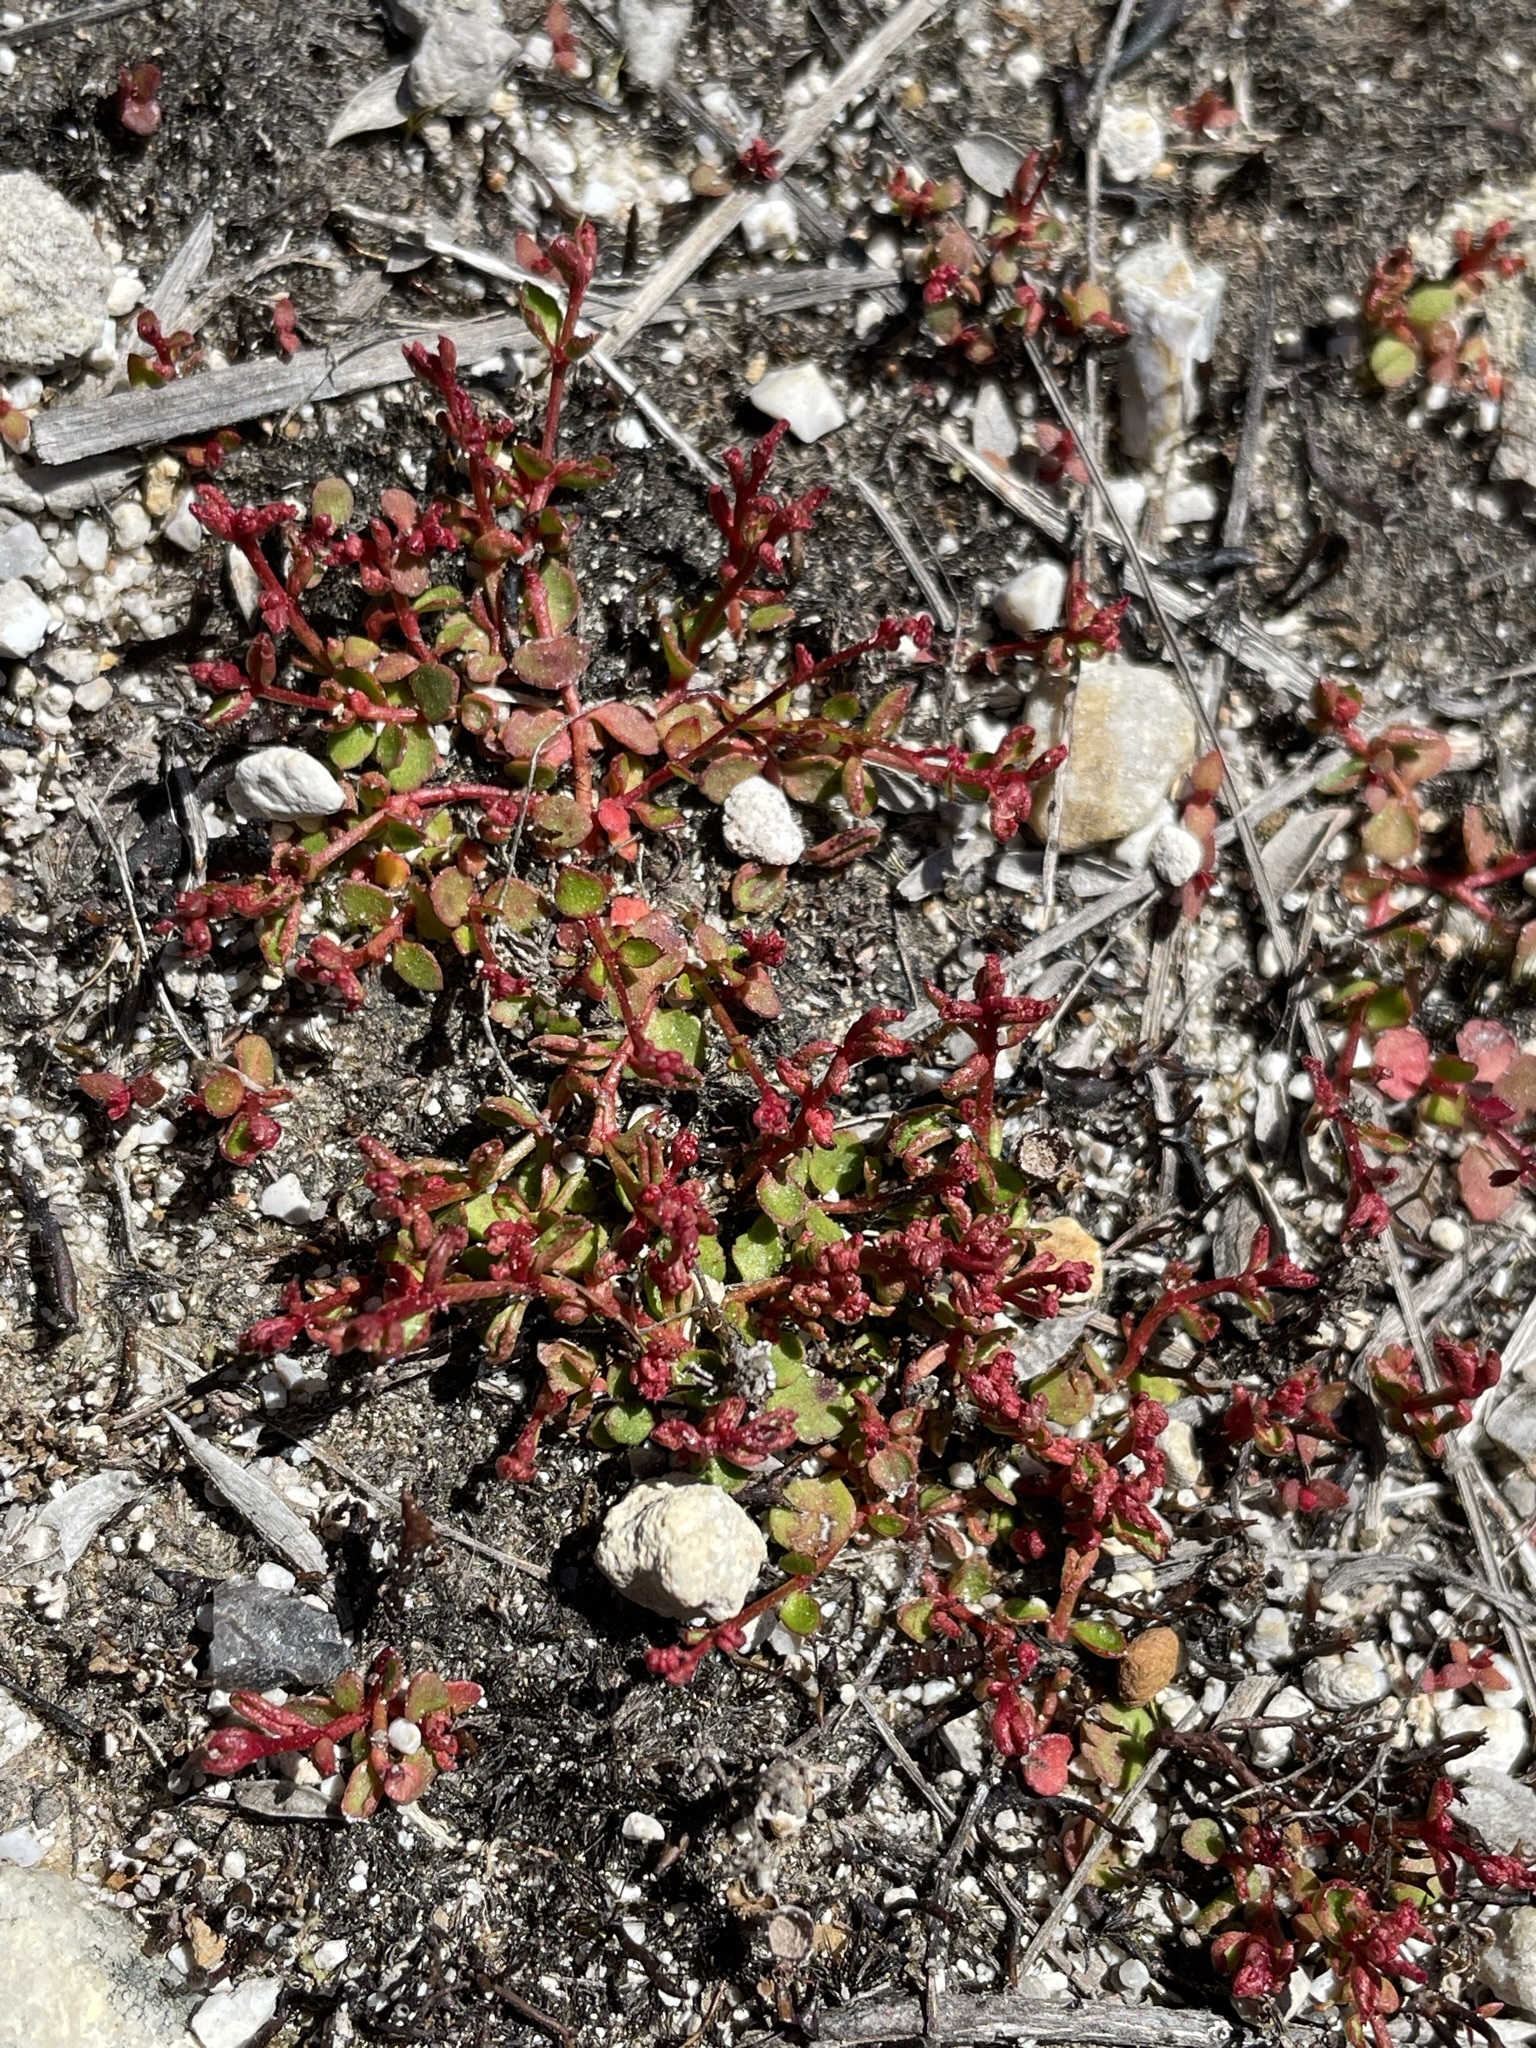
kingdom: Plantae
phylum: Tracheophyta
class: Magnoliopsida
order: Saxifragales
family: Haloragaceae
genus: Gonocarpus
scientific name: Gonocarpus micranthus
